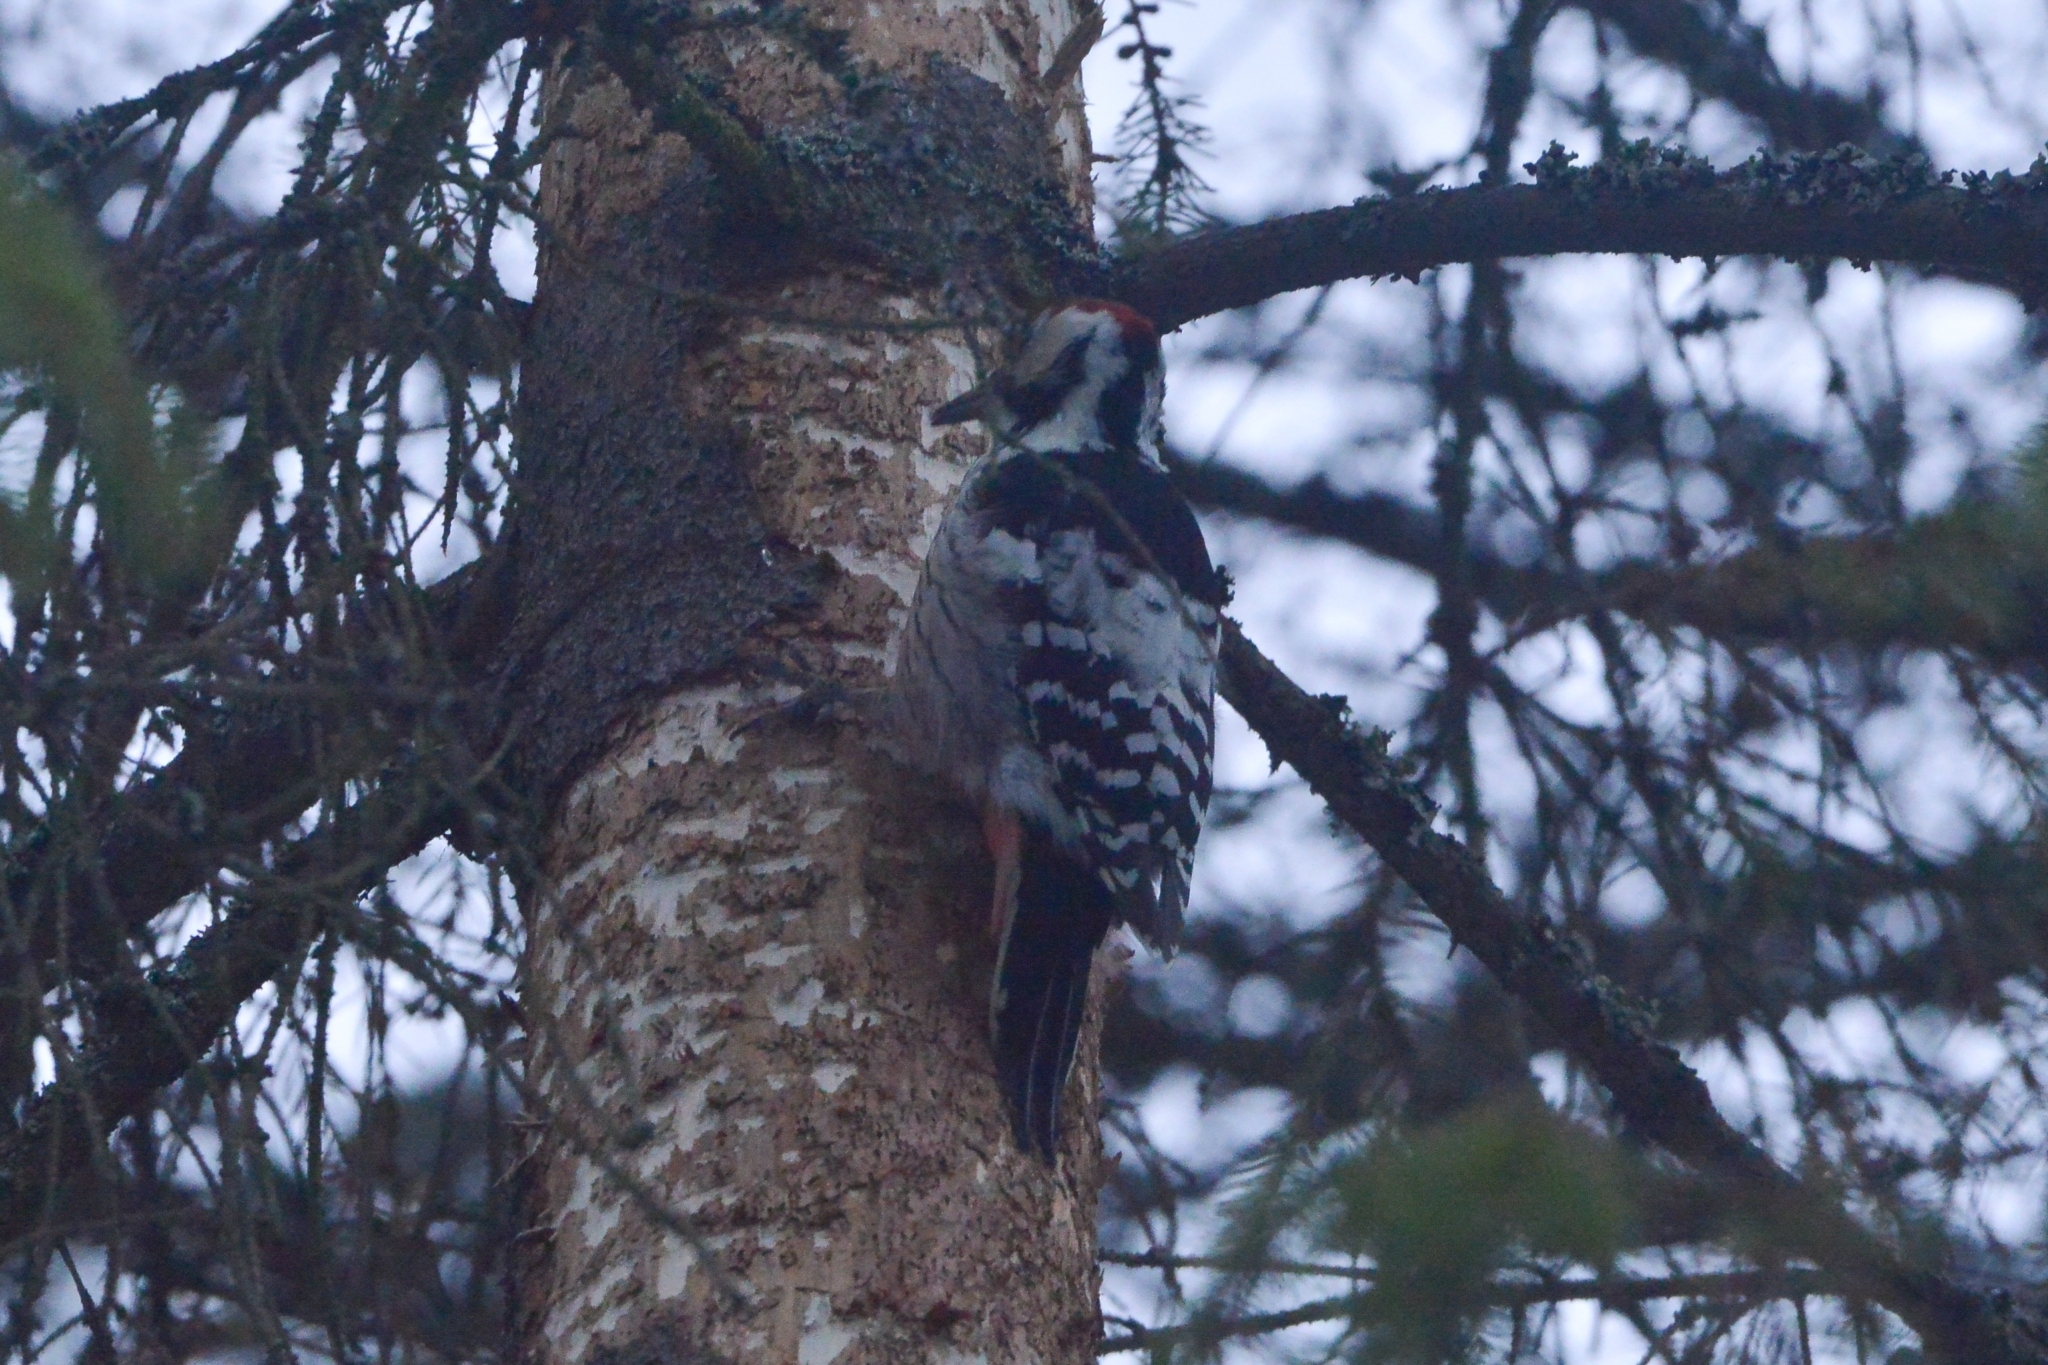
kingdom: Animalia
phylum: Chordata
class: Aves
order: Piciformes
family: Picidae
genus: Dendrocopos
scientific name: Dendrocopos leucotos
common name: White-backed woodpecker
